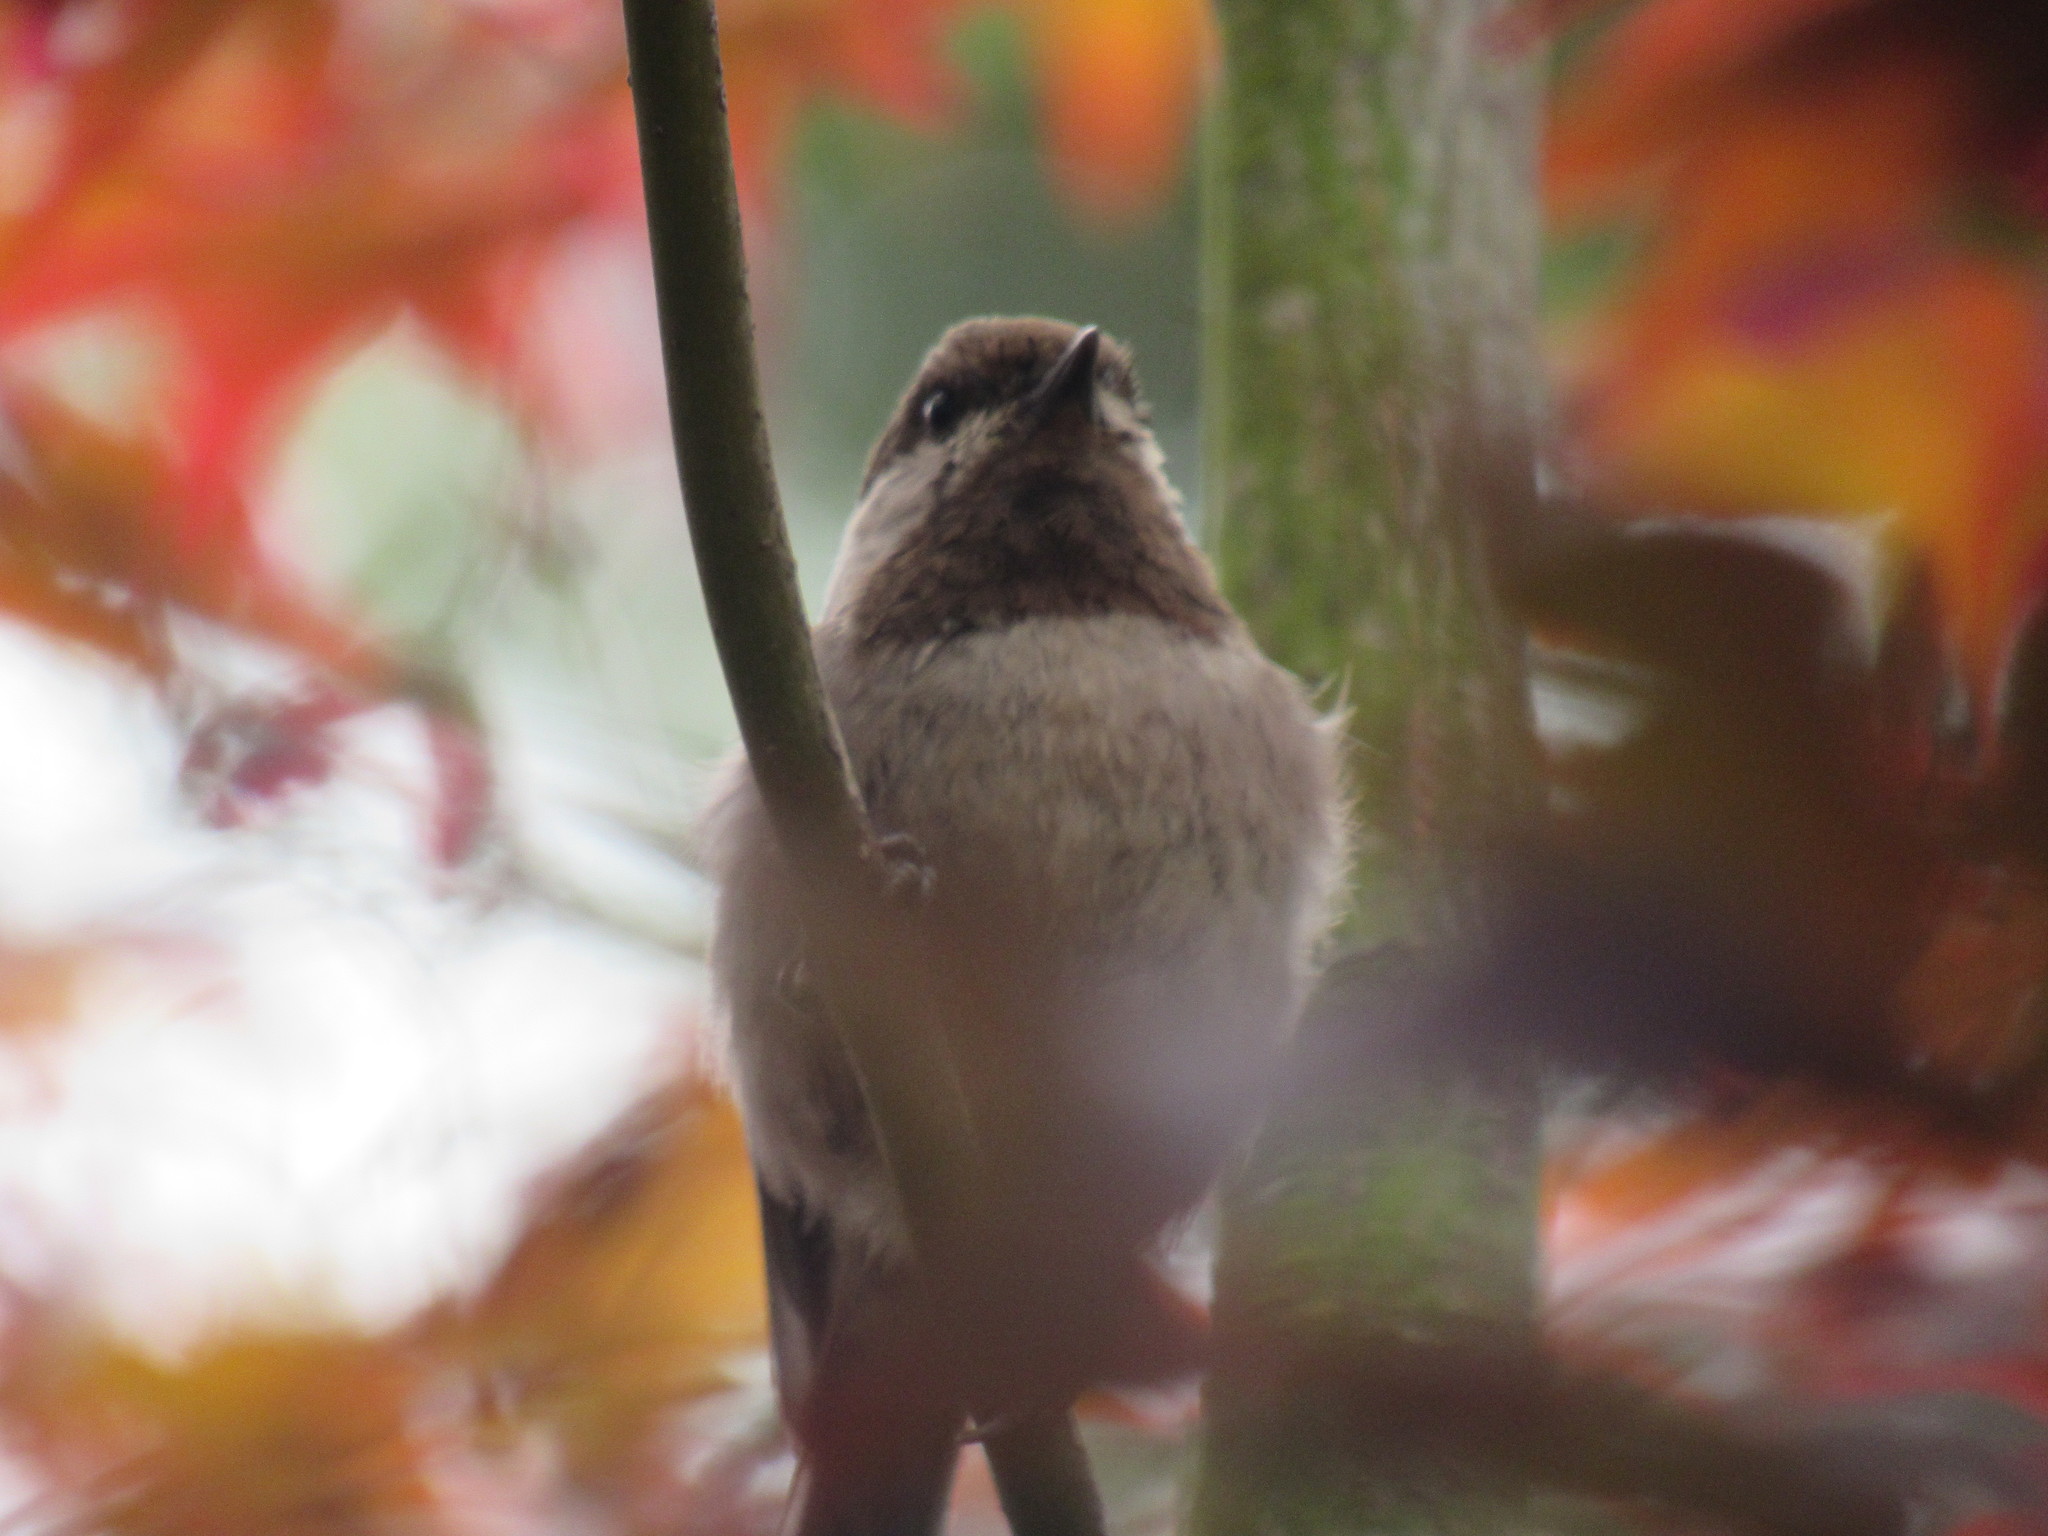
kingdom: Animalia
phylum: Chordata
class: Aves
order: Passeriformes
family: Paridae
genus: Poecile
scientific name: Poecile rufescens
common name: Chestnut-backed chickadee
